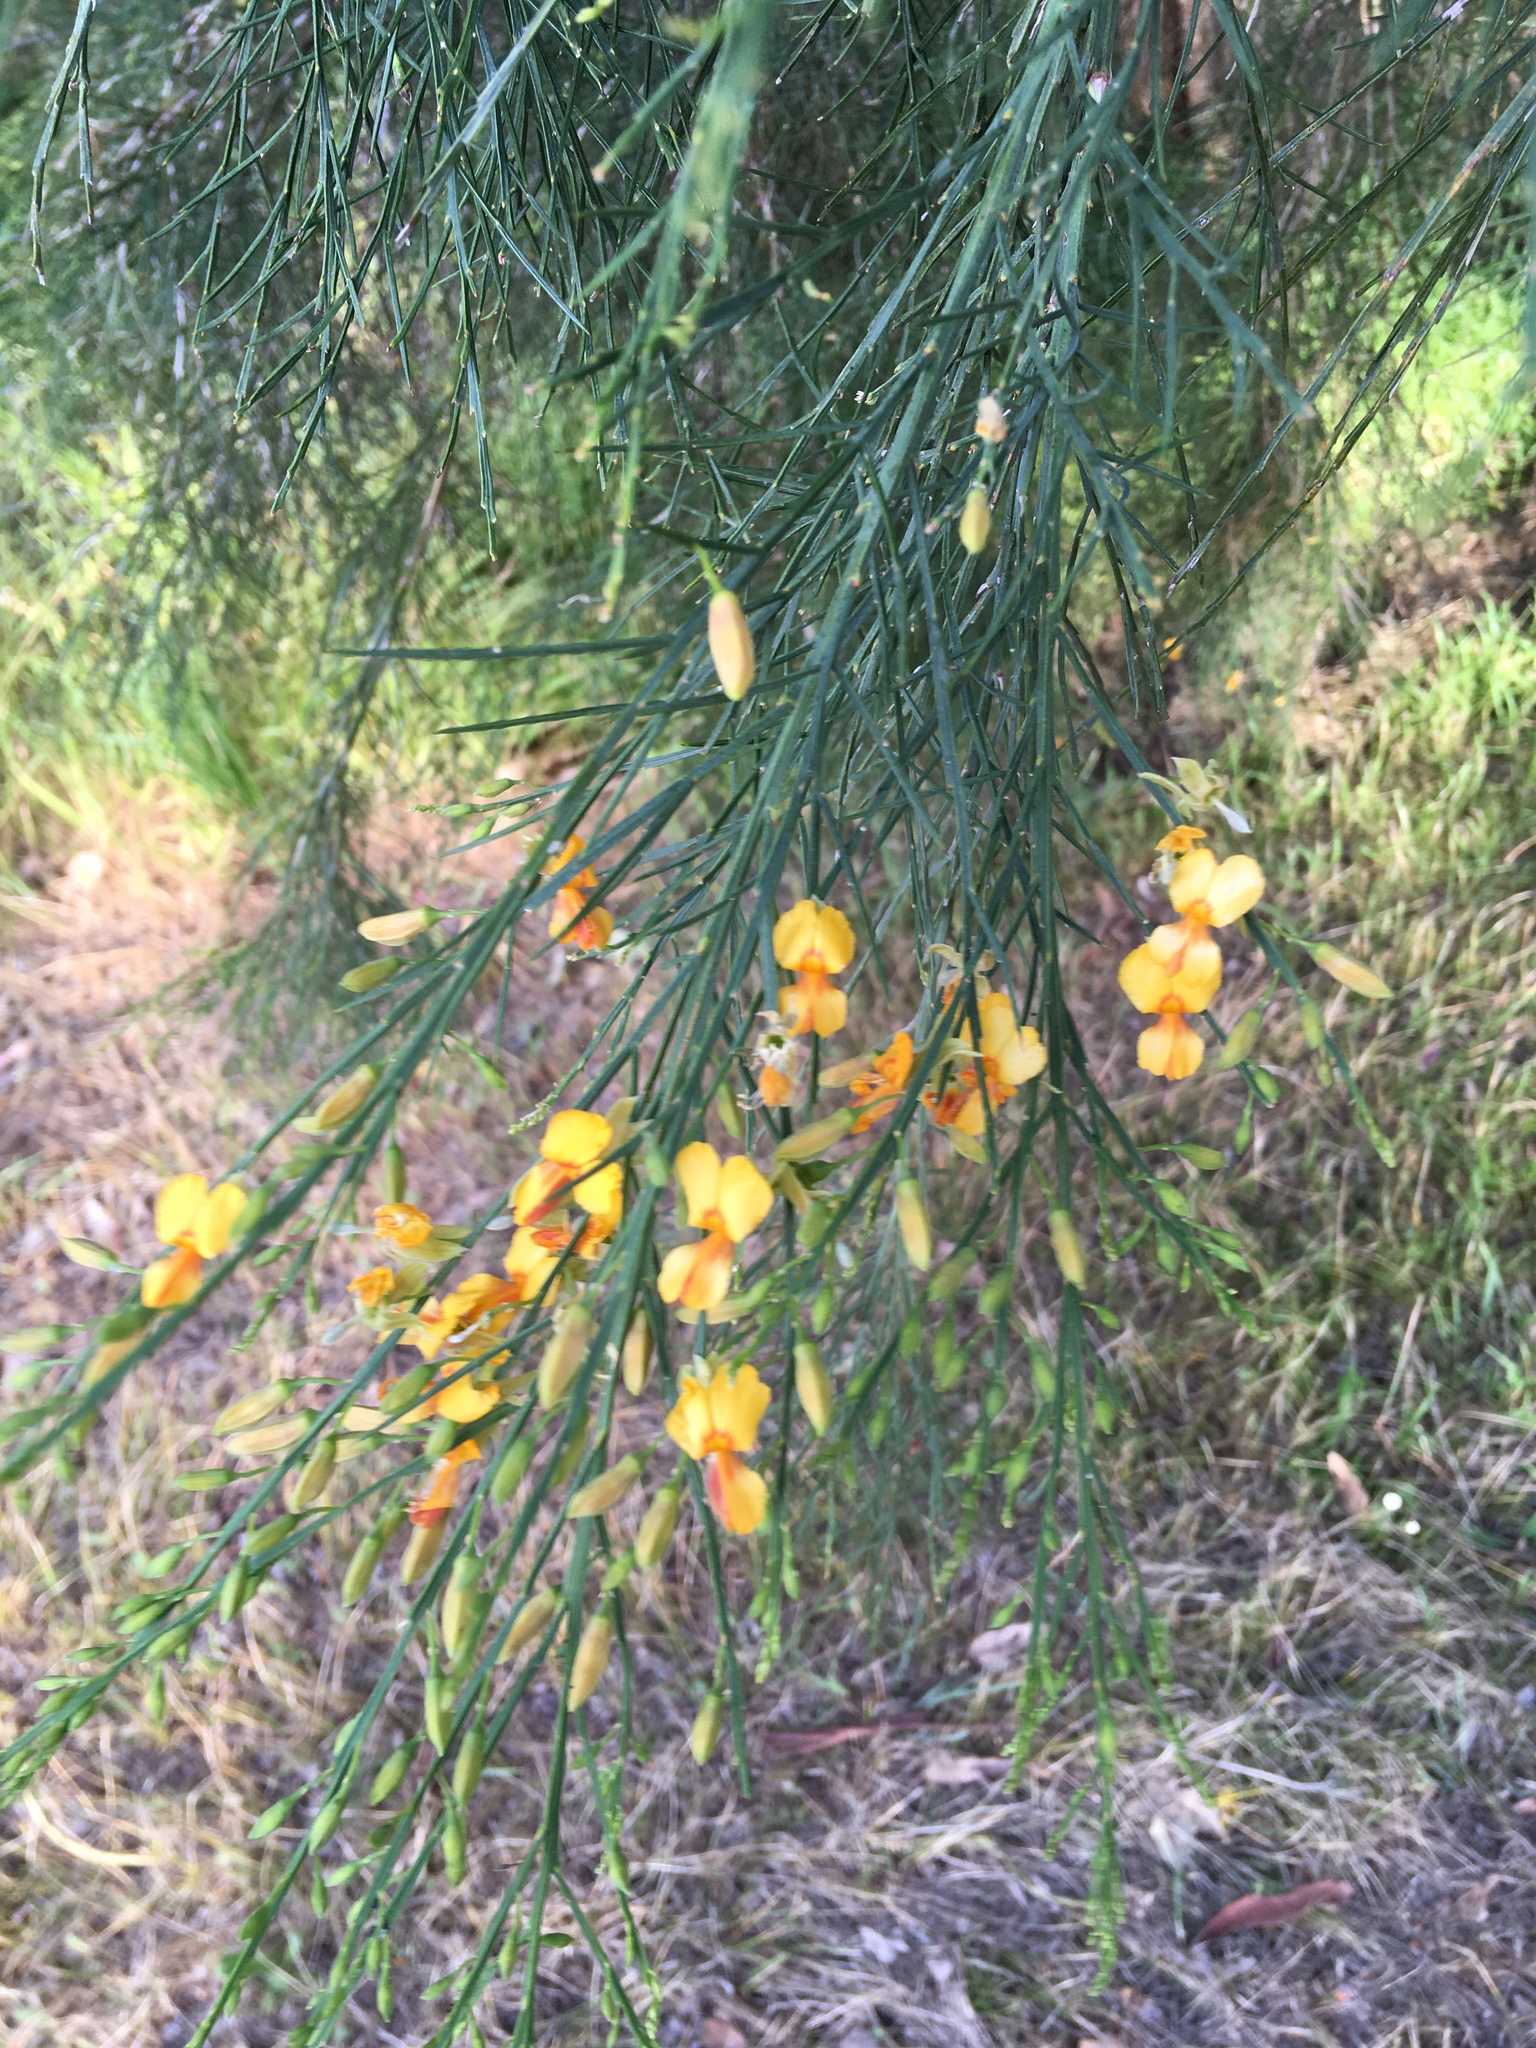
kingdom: Plantae
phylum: Tracheophyta
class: Magnoliopsida
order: Fabales
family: Fabaceae
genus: Jacksonia
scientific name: Jacksonia sternbergiana
